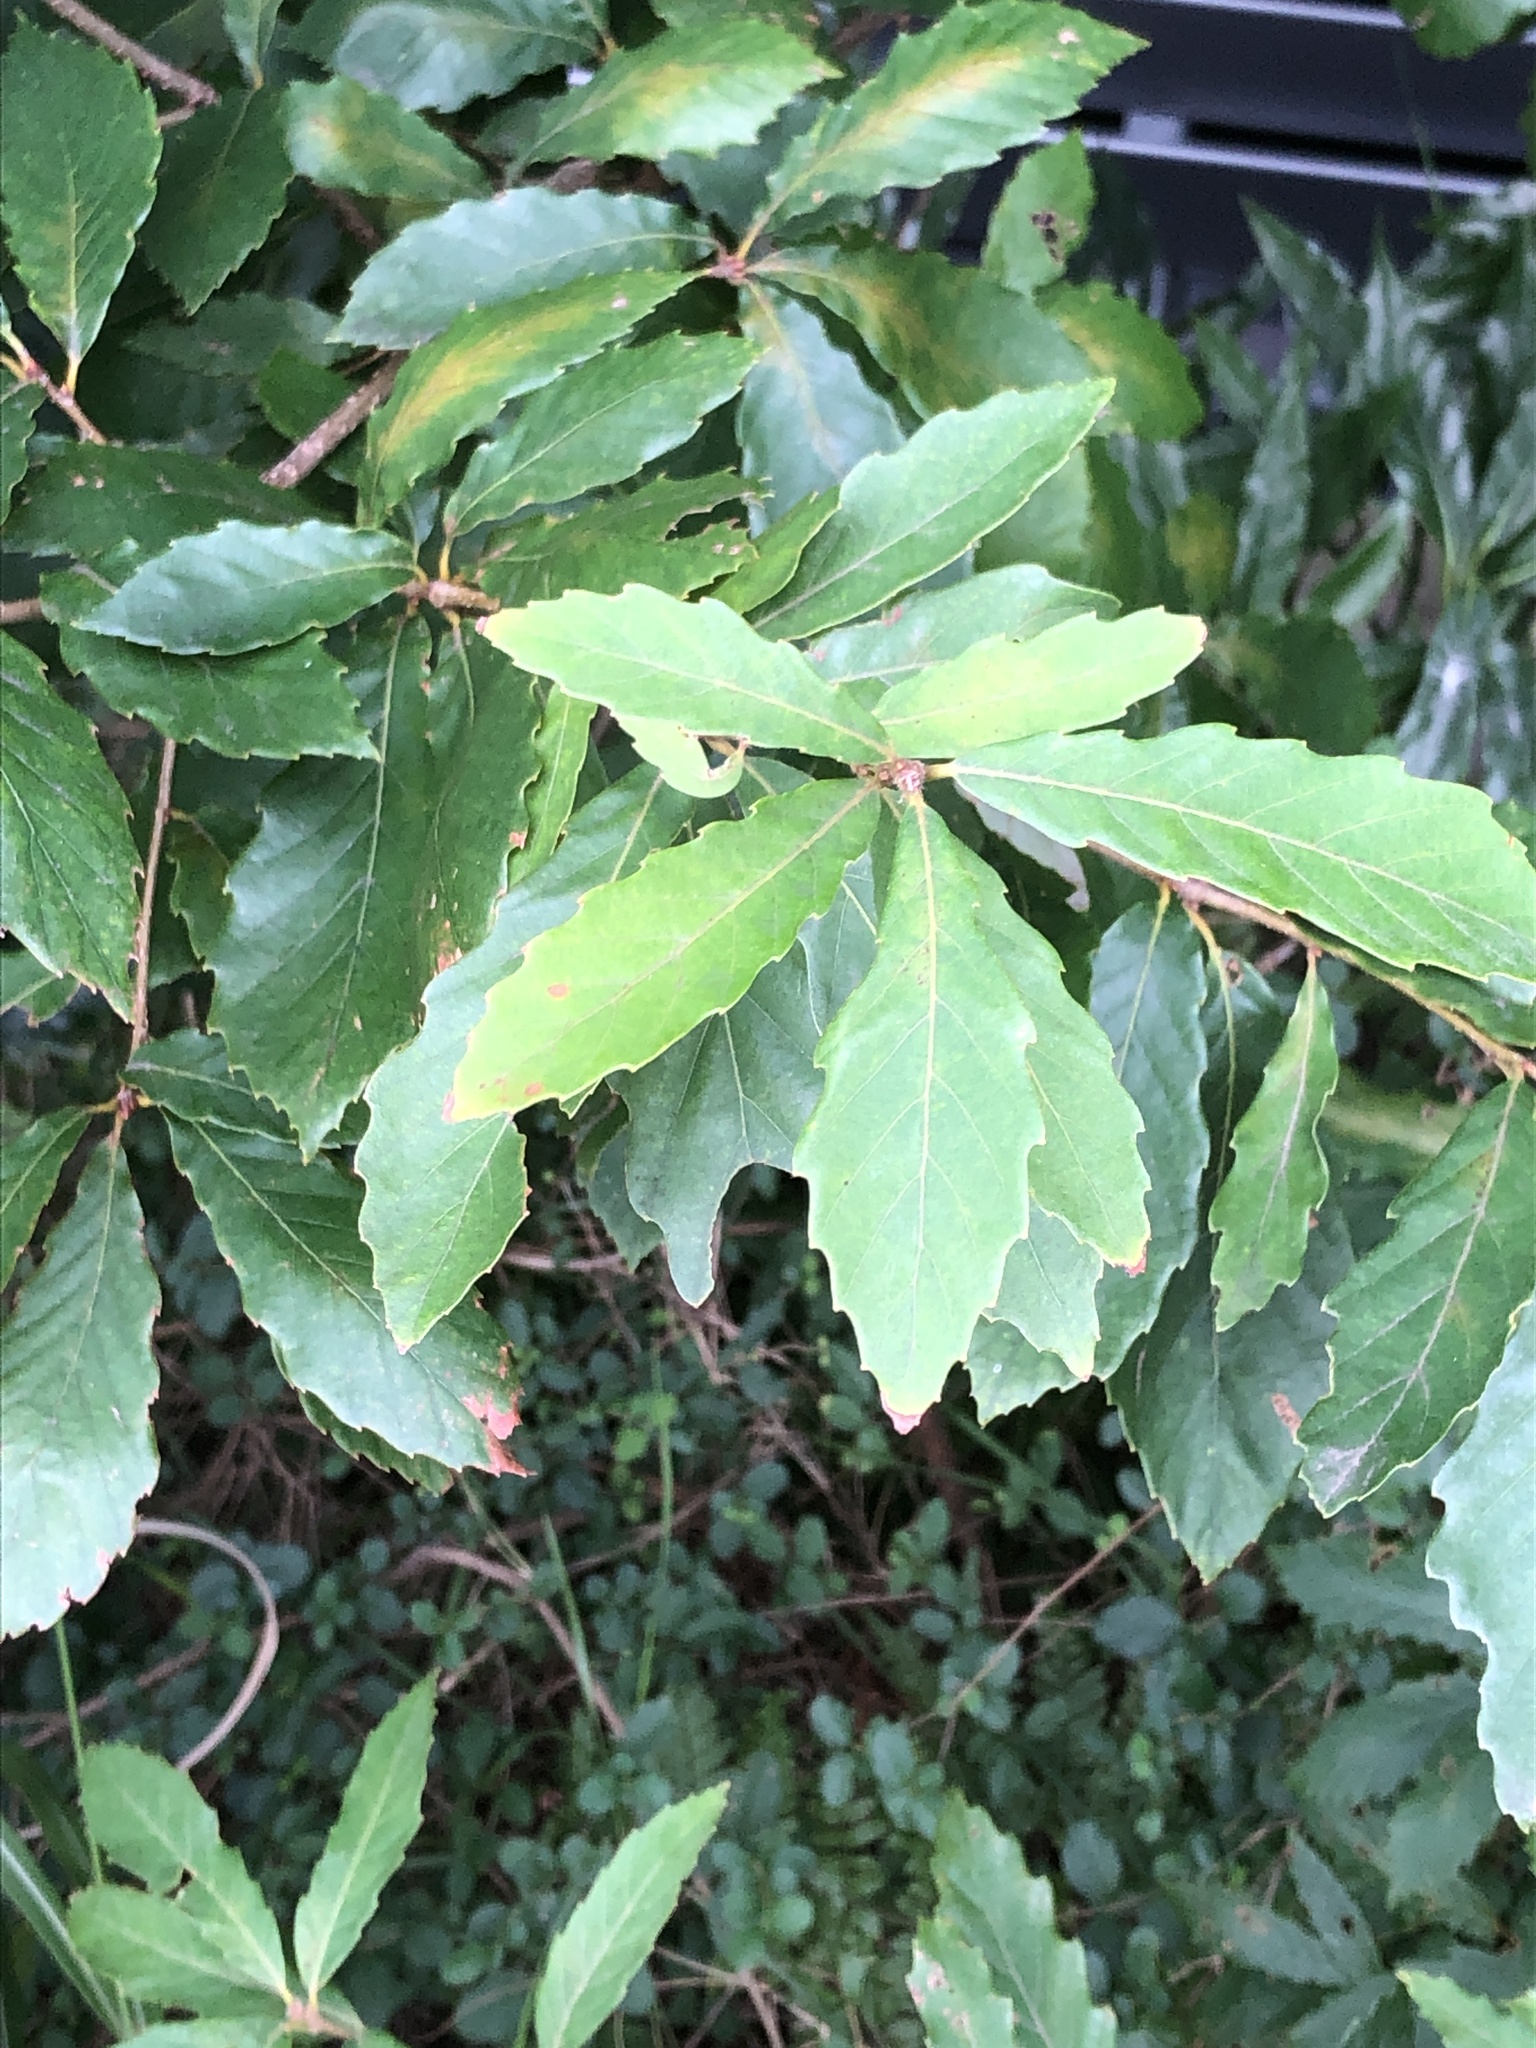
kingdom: Plantae
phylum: Tracheophyta
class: Magnoliopsida
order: Fagales
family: Fagaceae
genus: Quercus
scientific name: Quercus serrata
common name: Bao li
